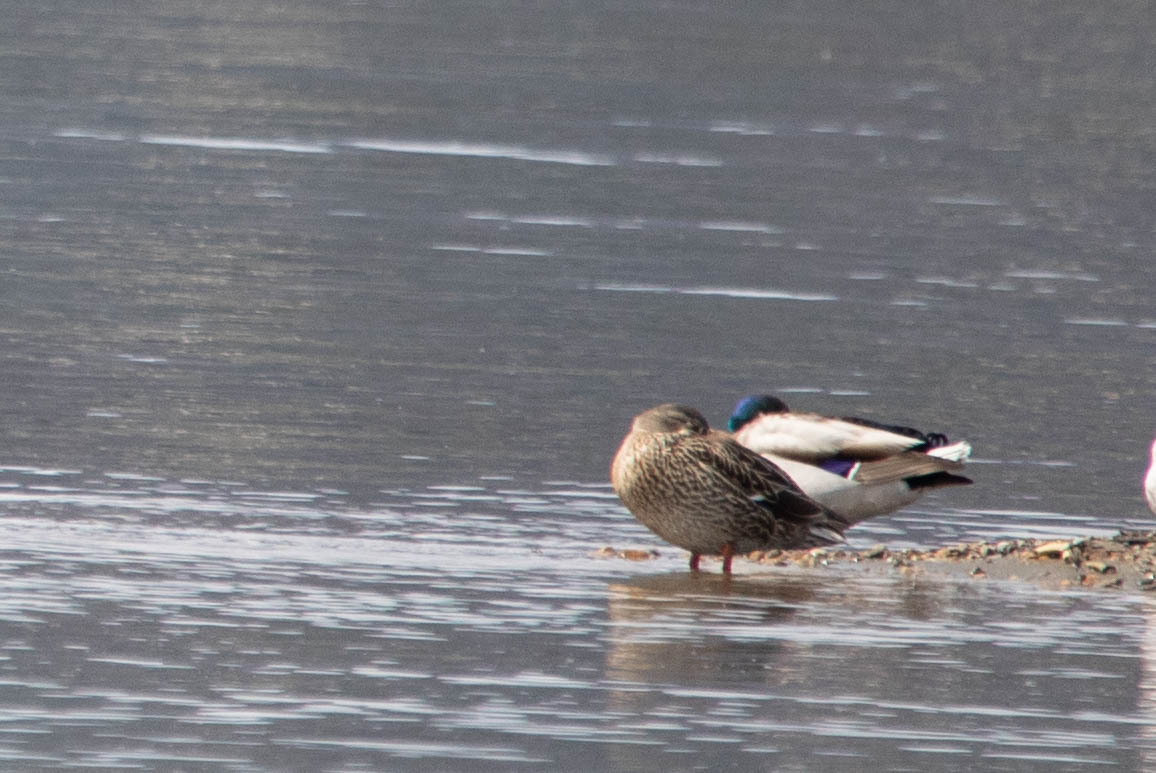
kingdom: Animalia
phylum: Chordata
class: Aves
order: Anseriformes
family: Anatidae
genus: Anas
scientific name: Anas platyrhynchos
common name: Mallard
